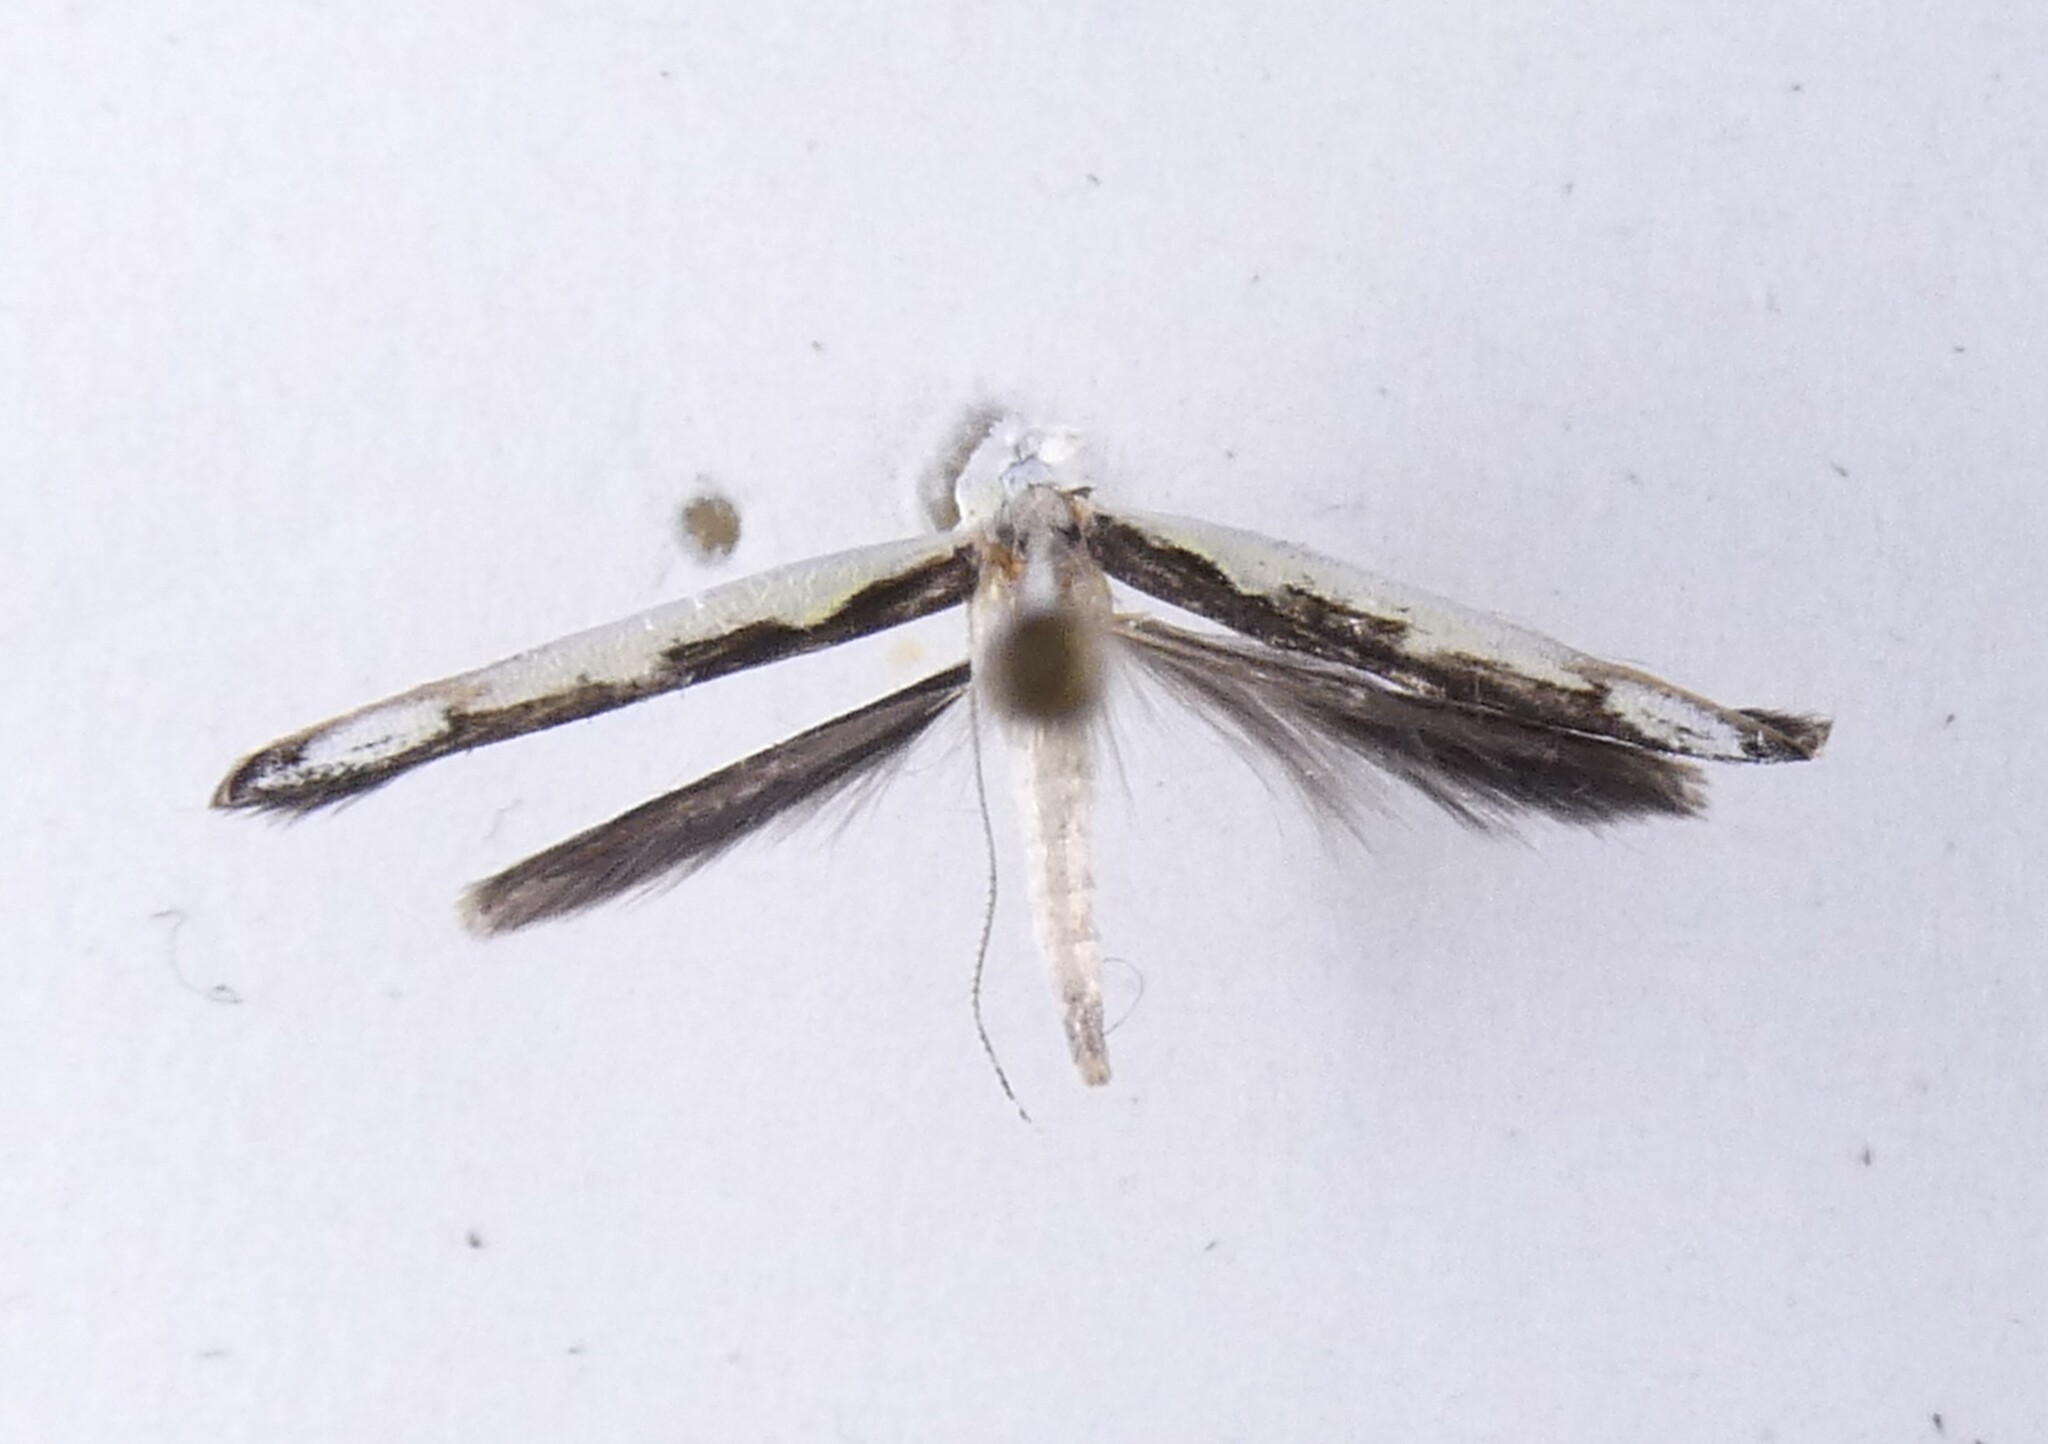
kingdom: Animalia
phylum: Arthropoda
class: Insecta
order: Lepidoptera
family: Roeslerstammiidae
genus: Vanicela
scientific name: Vanicela disjunctella
